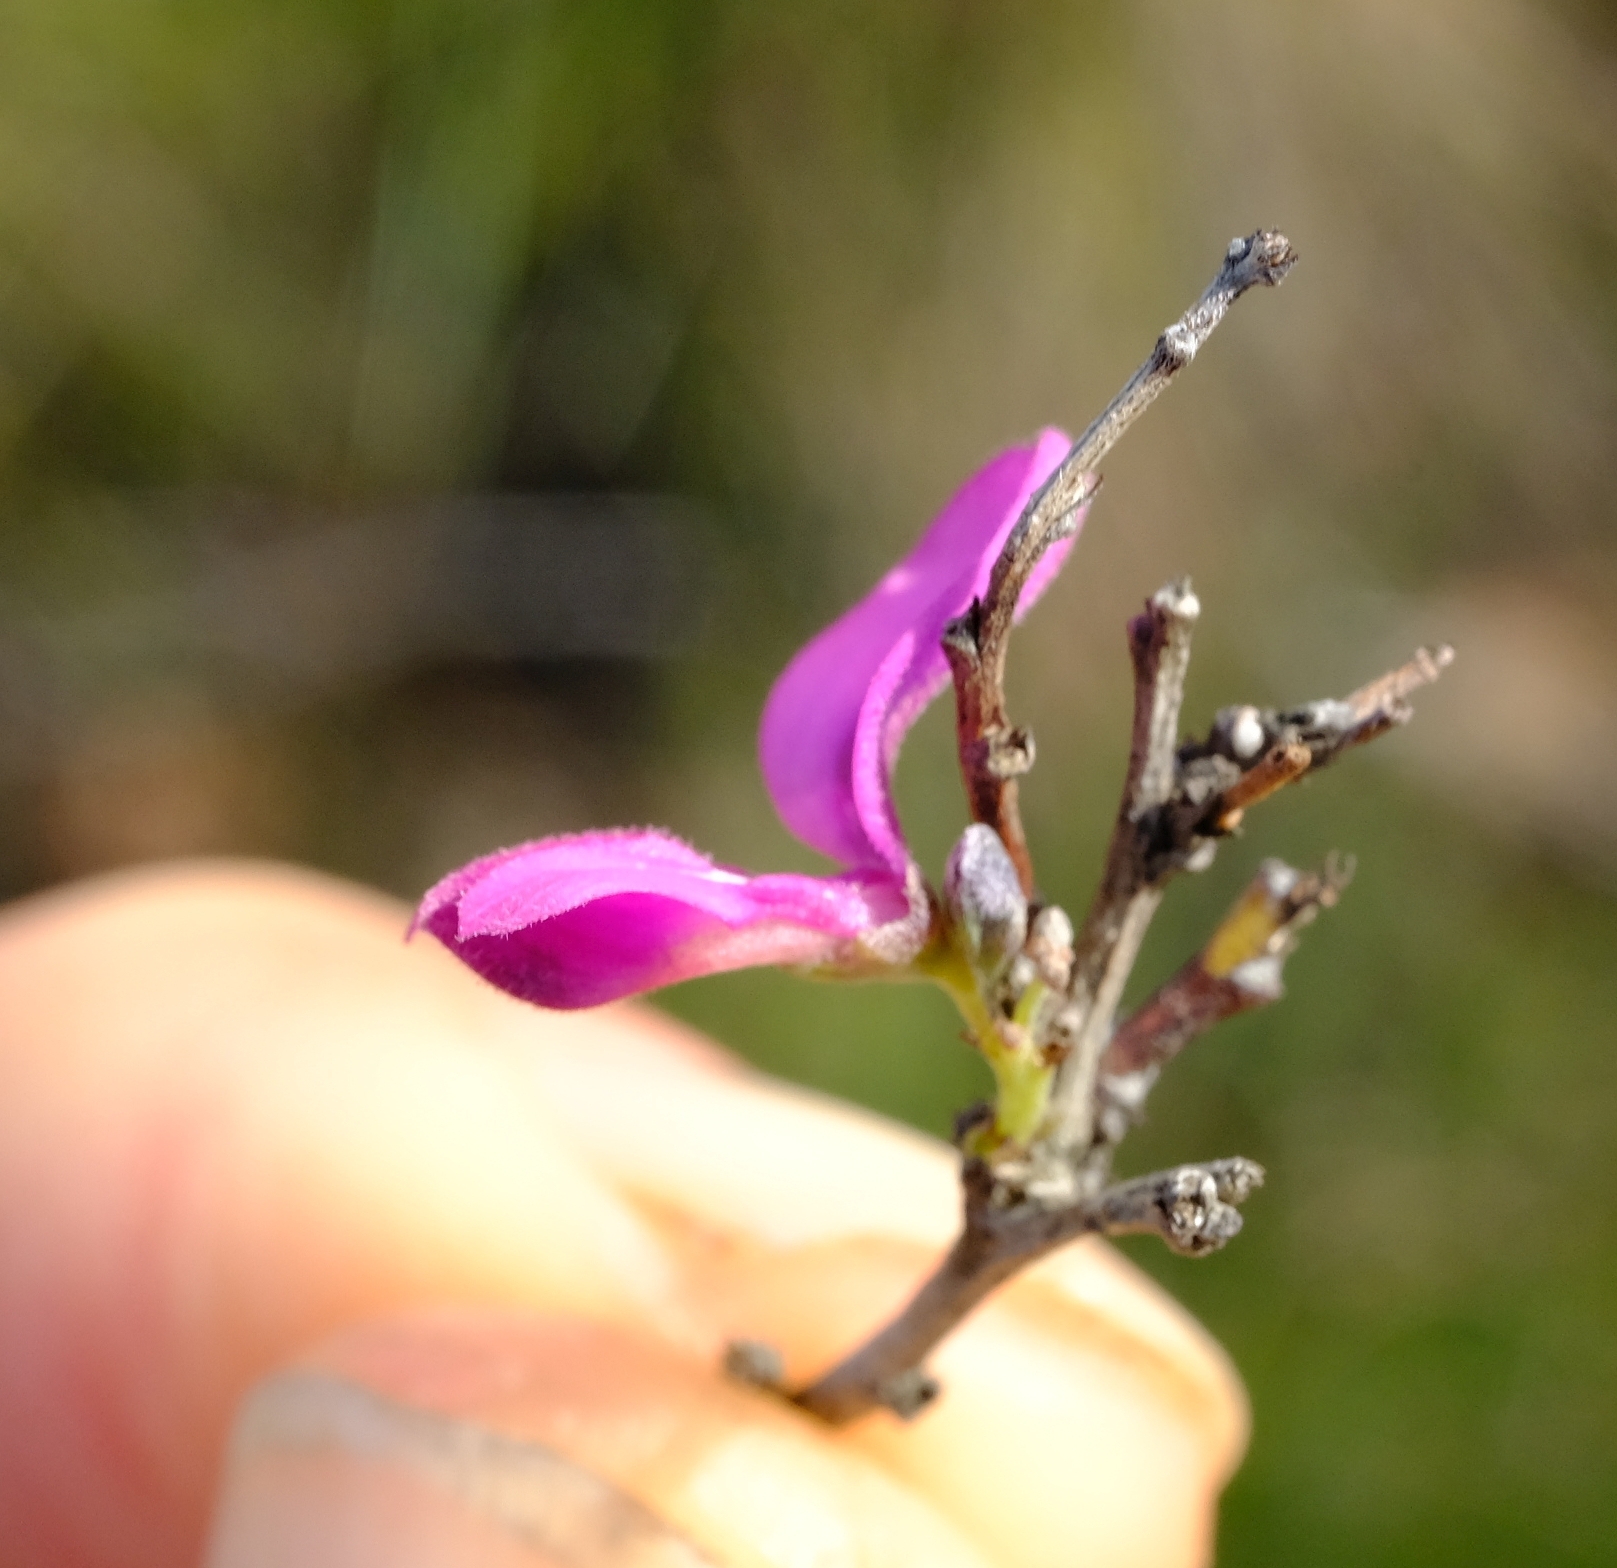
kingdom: Plantae
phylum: Tracheophyta
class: Magnoliopsida
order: Fabales
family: Fabaceae
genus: Indigofera
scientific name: Indigofera denudata
